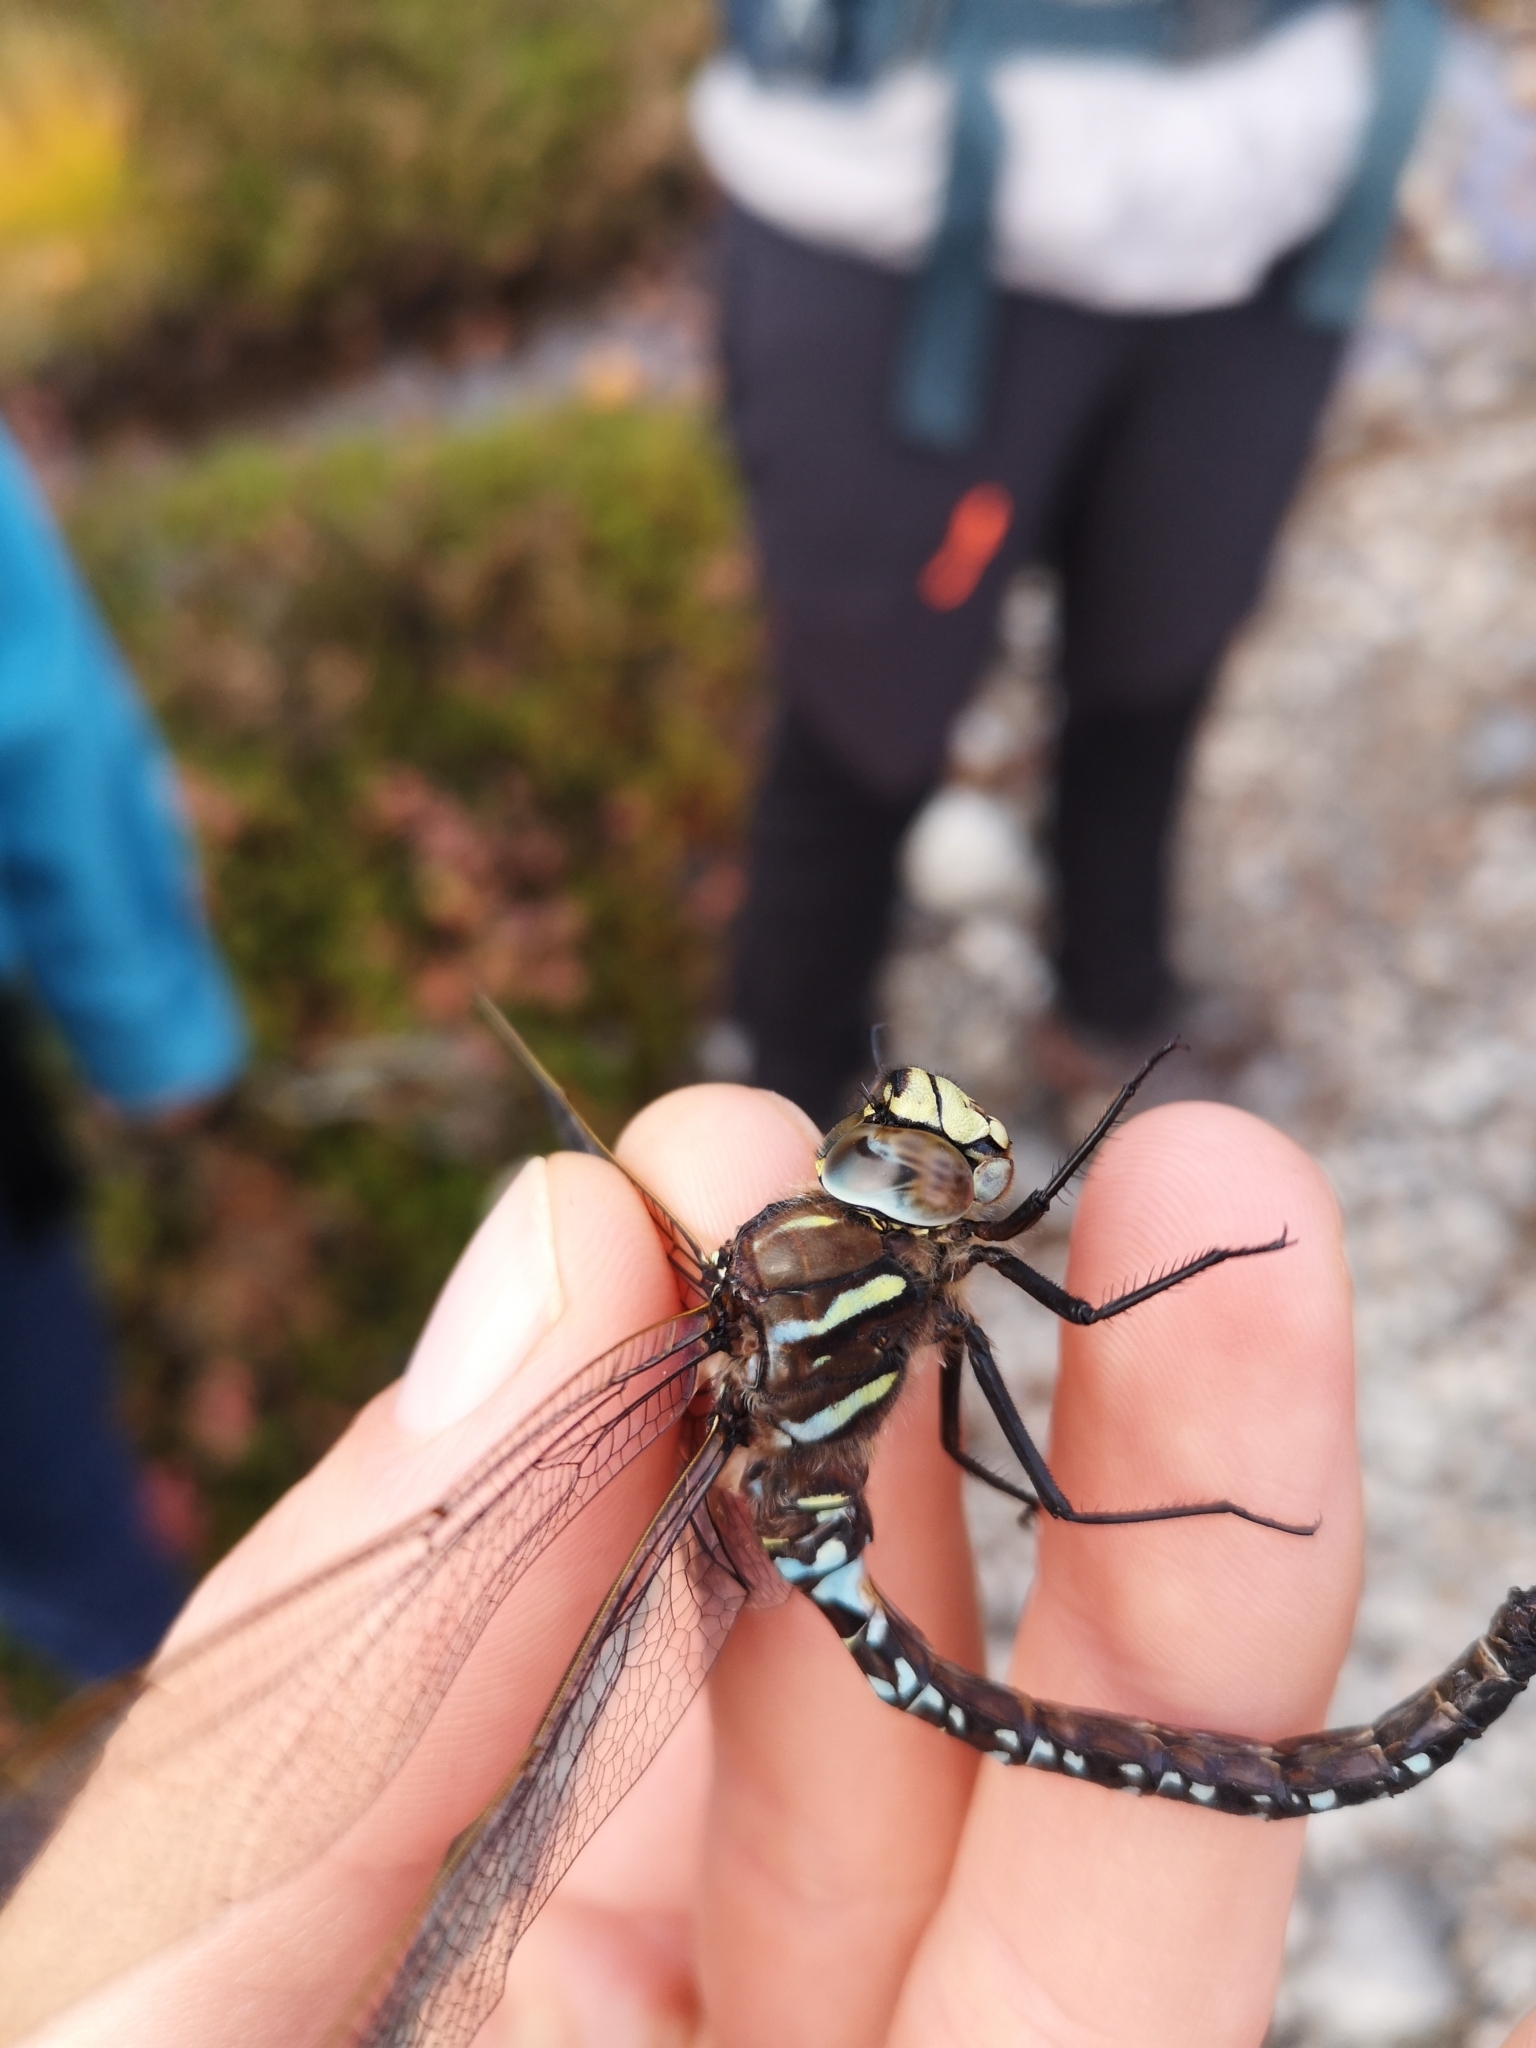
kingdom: Animalia
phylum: Arthropoda
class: Insecta
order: Odonata
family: Aeshnidae
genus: Aeshna
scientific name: Aeshna juncea
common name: Moorland hawker
